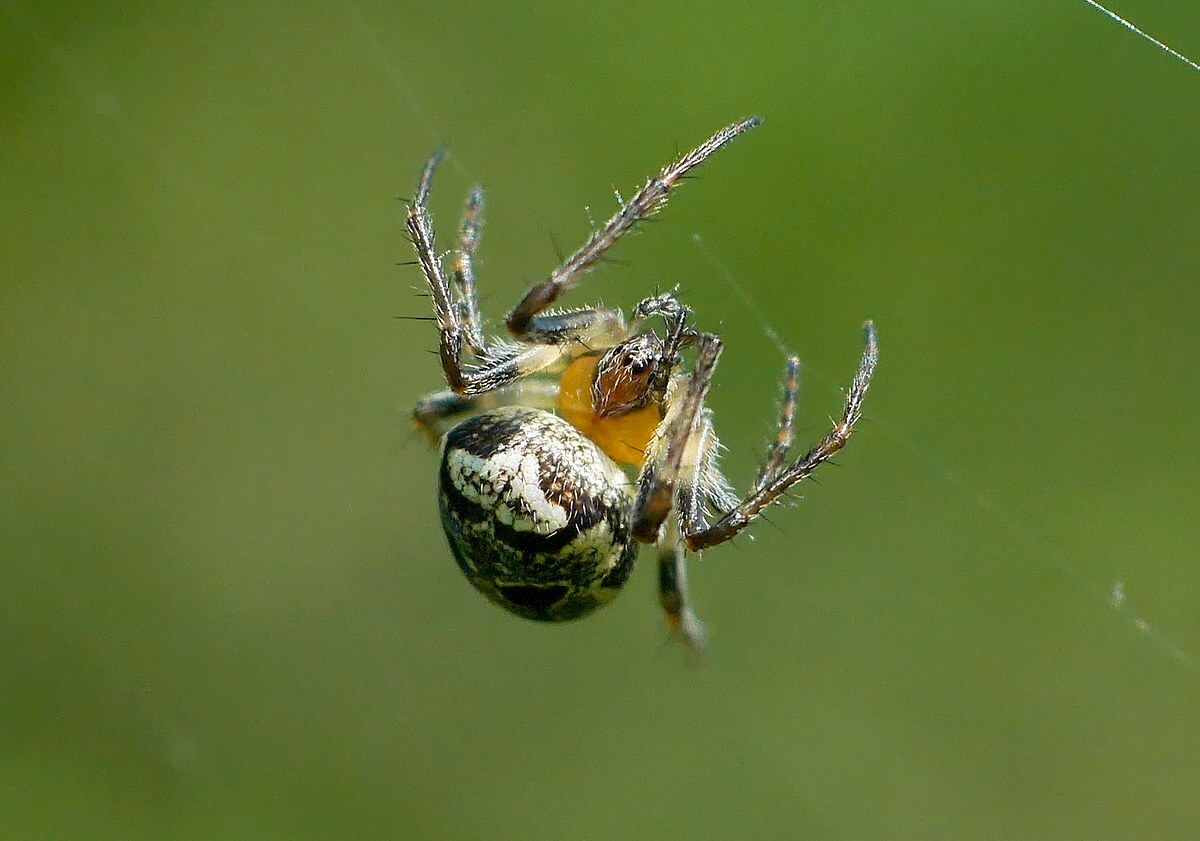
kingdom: Animalia
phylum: Arthropoda
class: Arachnida
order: Araneae
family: Araneidae
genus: Zilla
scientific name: Zilla diodia
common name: Zilla diodia
